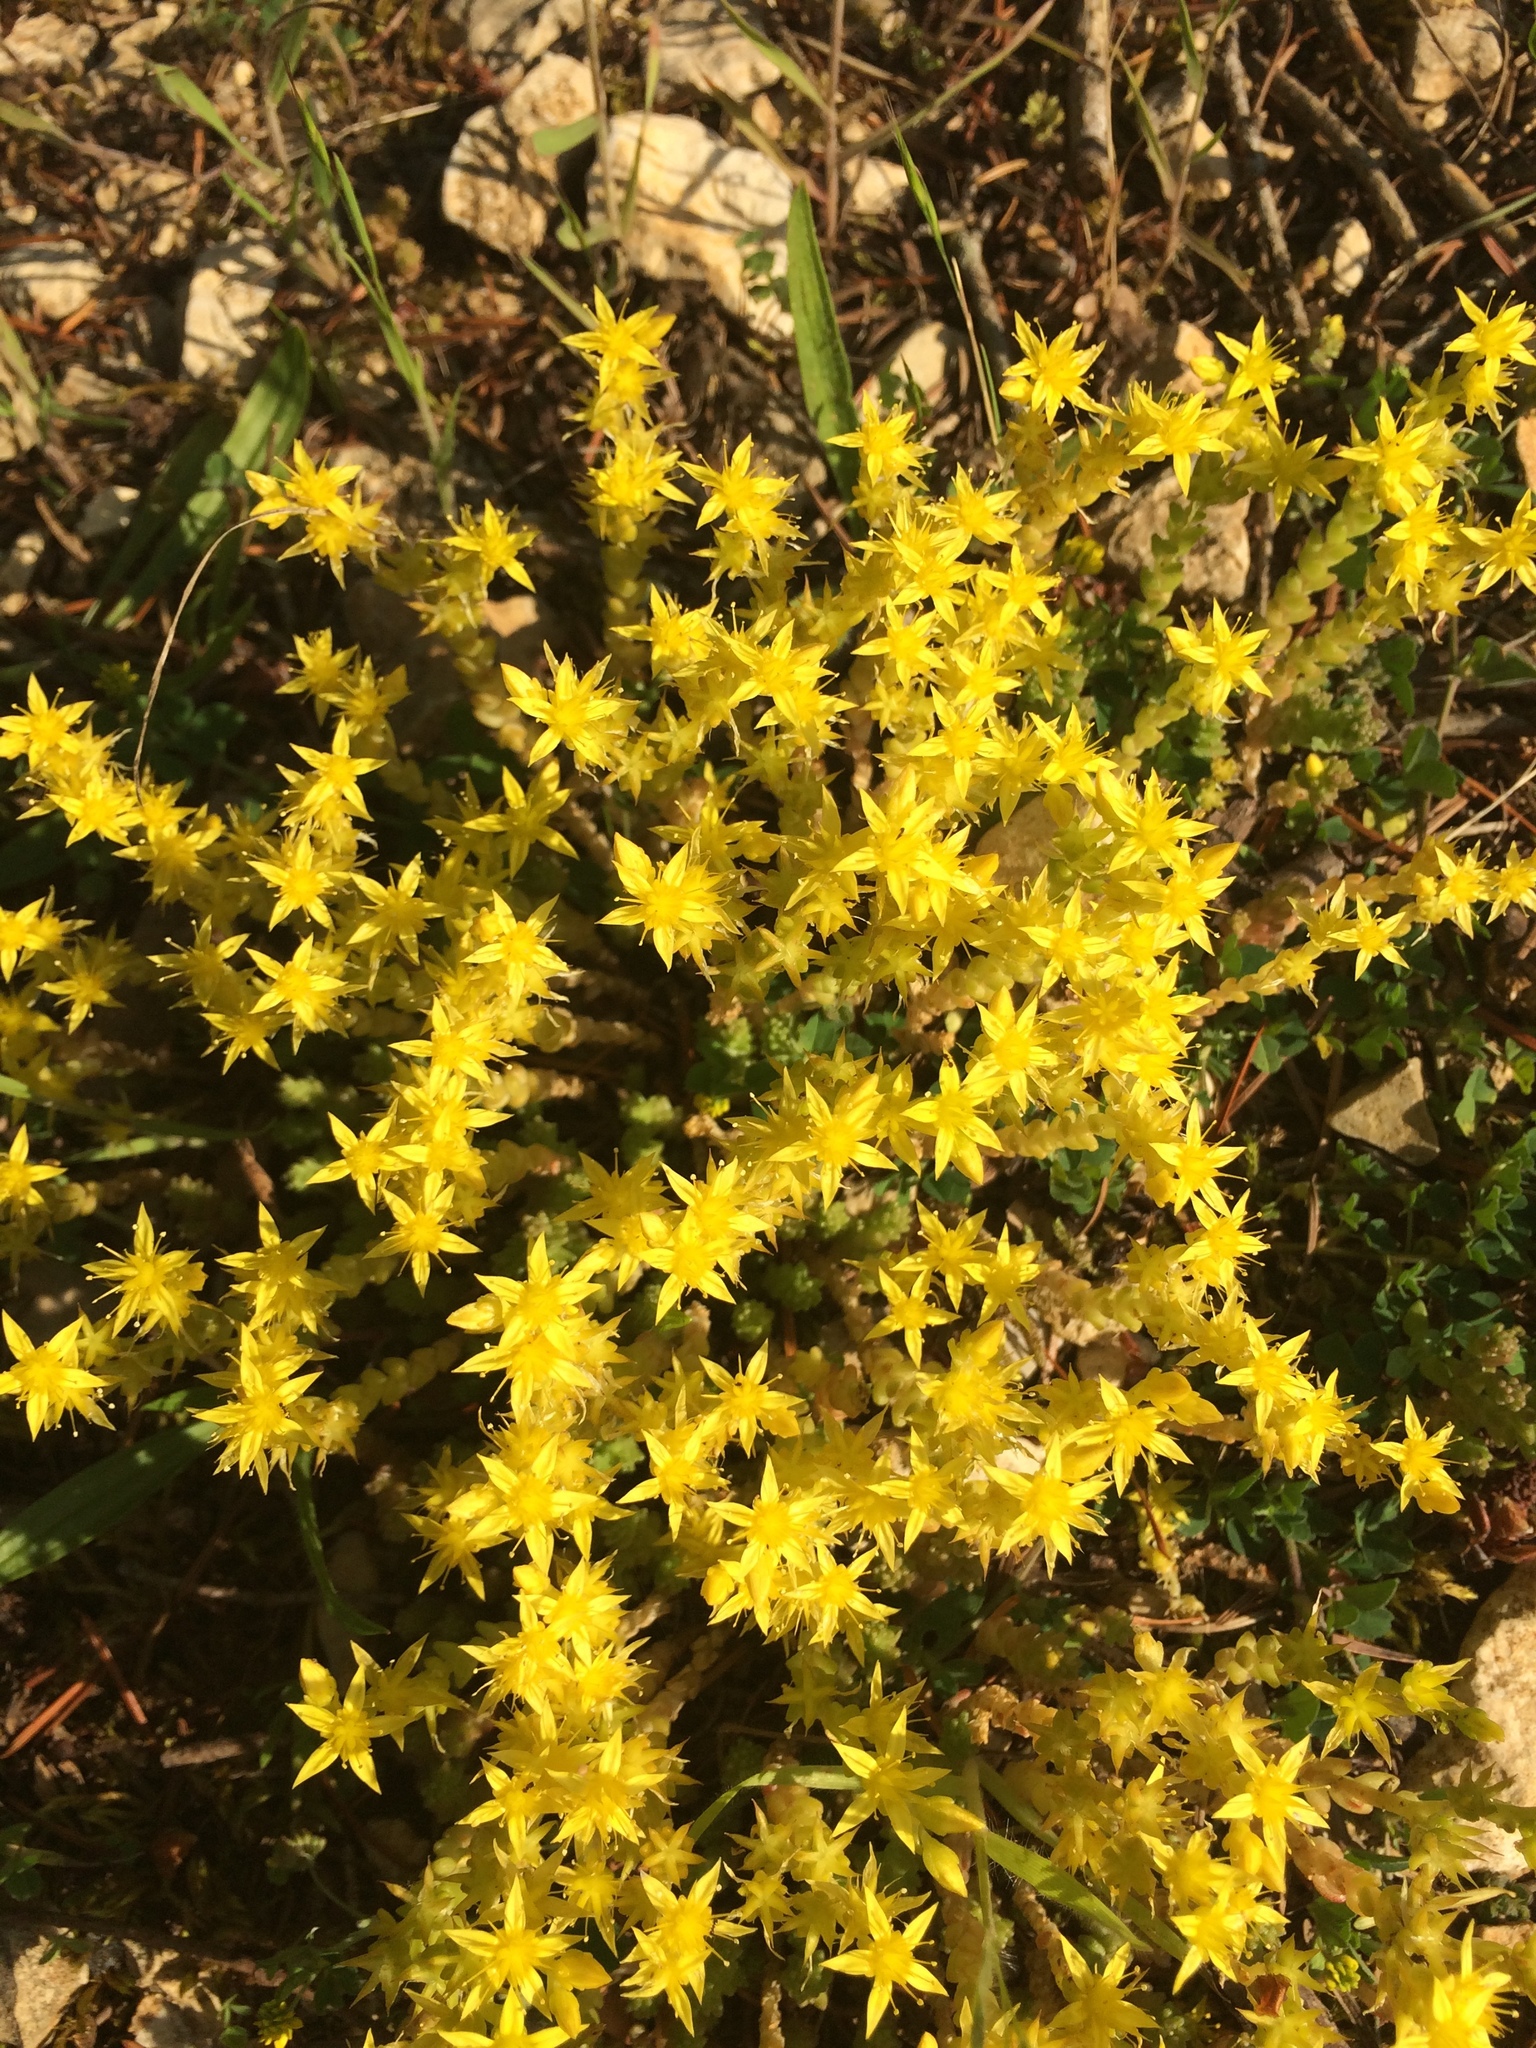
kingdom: Plantae
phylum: Tracheophyta
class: Magnoliopsida
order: Saxifragales
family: Crassulaceae
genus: Sedum
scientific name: Sedum acre
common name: Biting stonecrop
